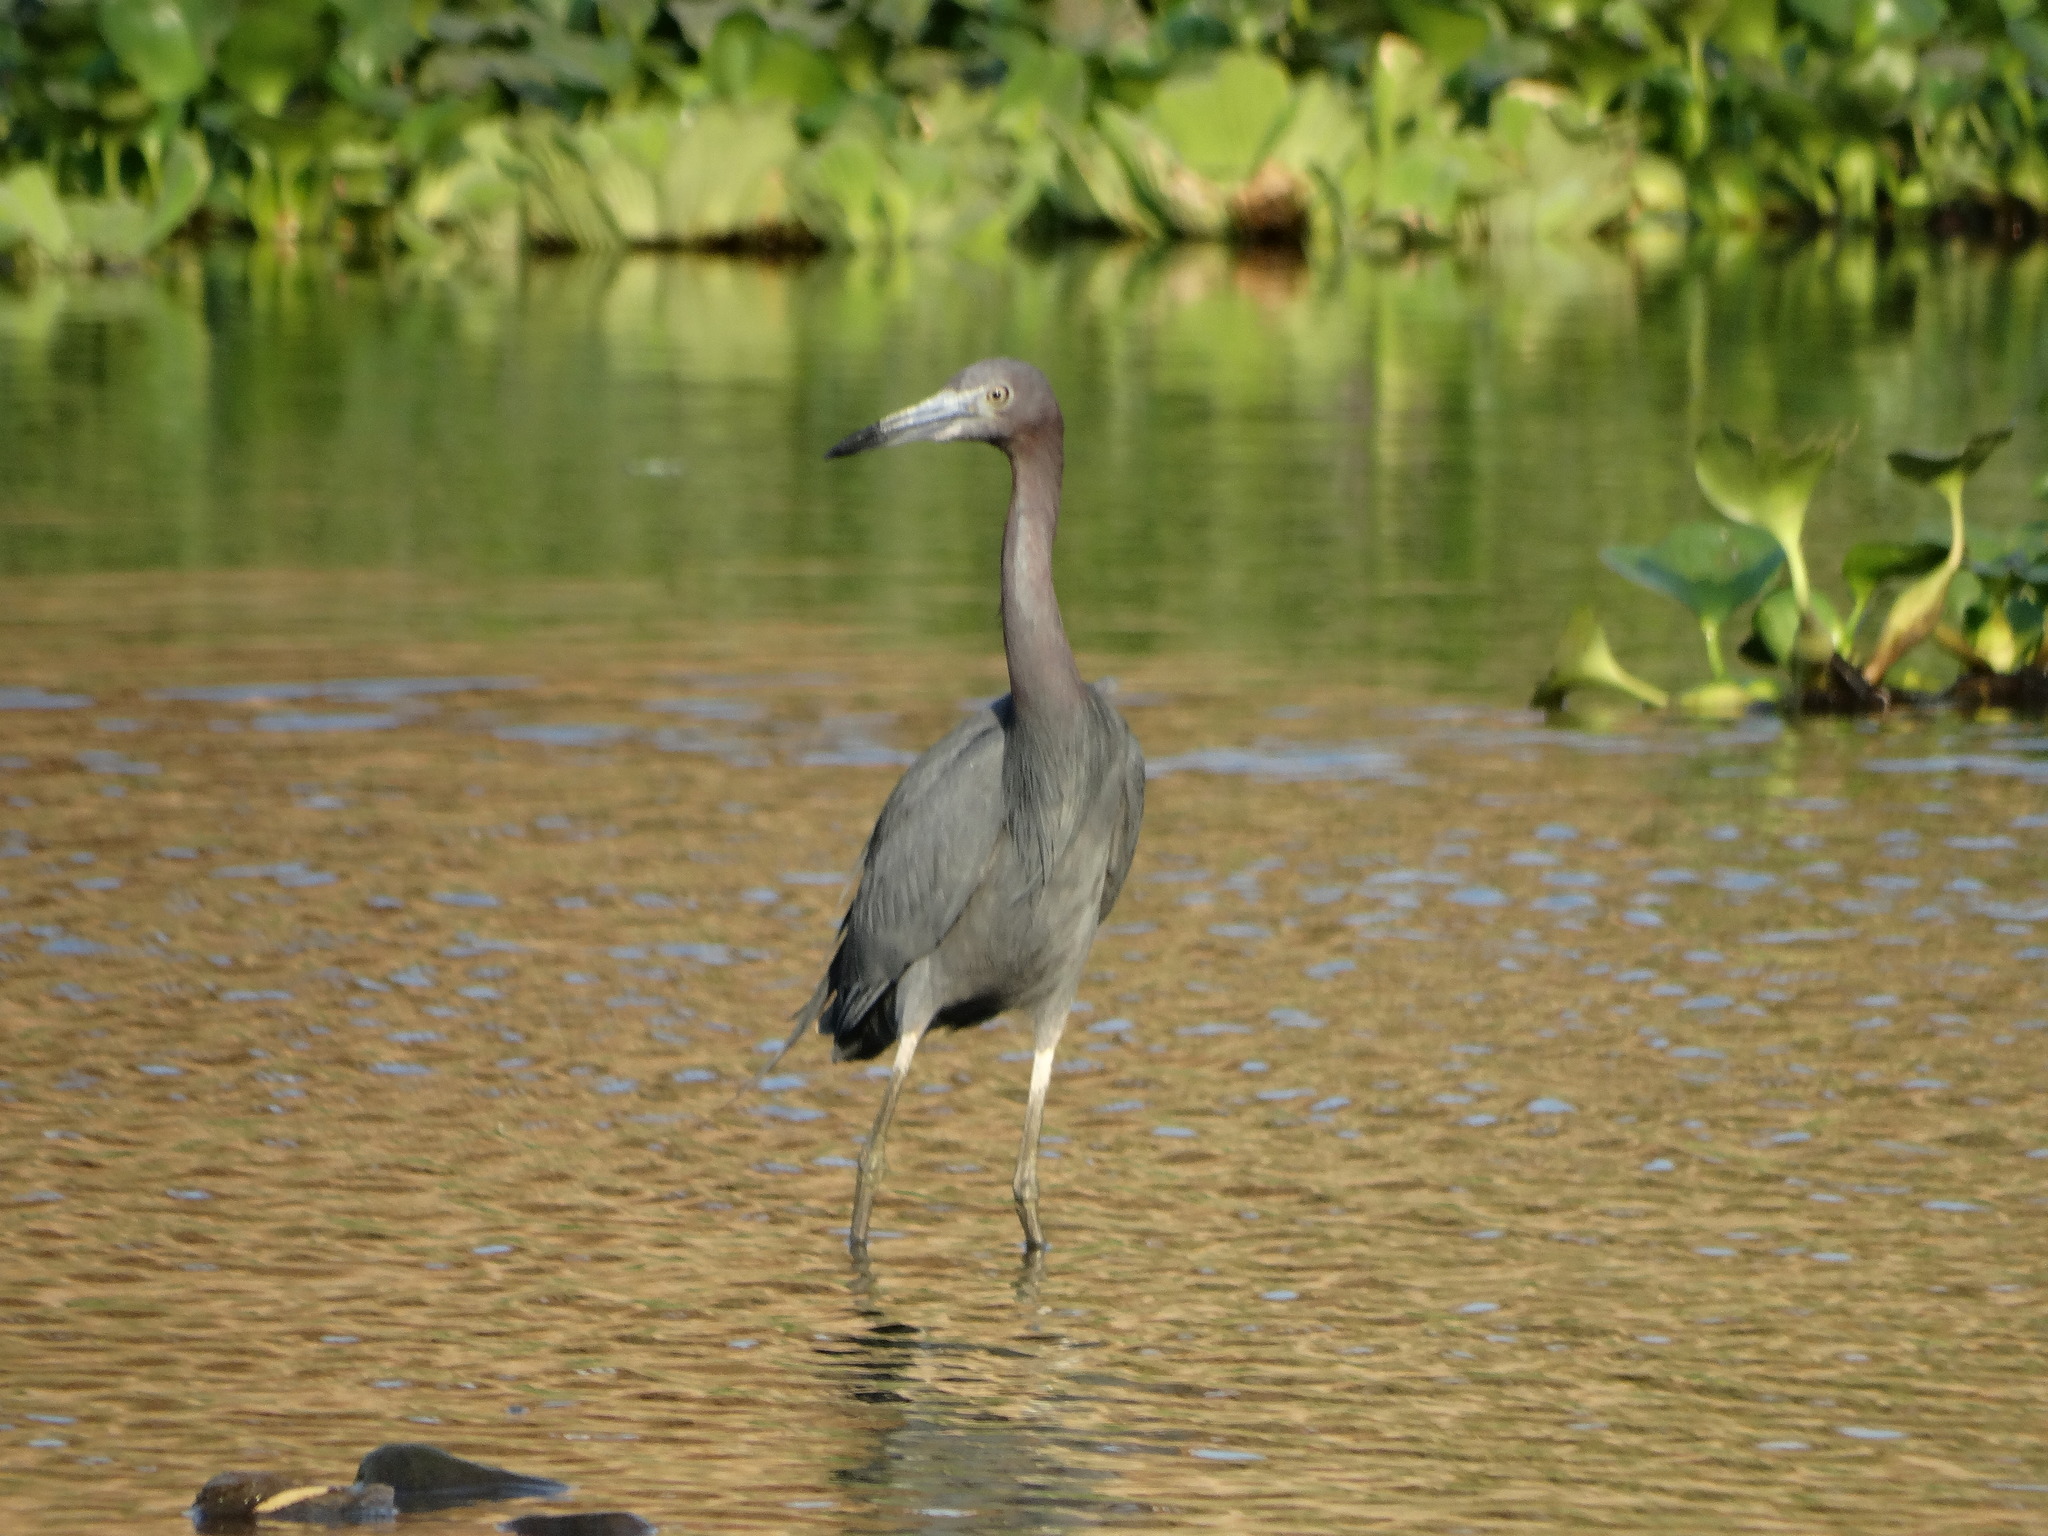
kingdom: Animalia
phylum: Chordata
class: Aves
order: Pelecaniformes
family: Ardeidae
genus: Egretta
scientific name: Egretta caerulea
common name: Little blue heron
